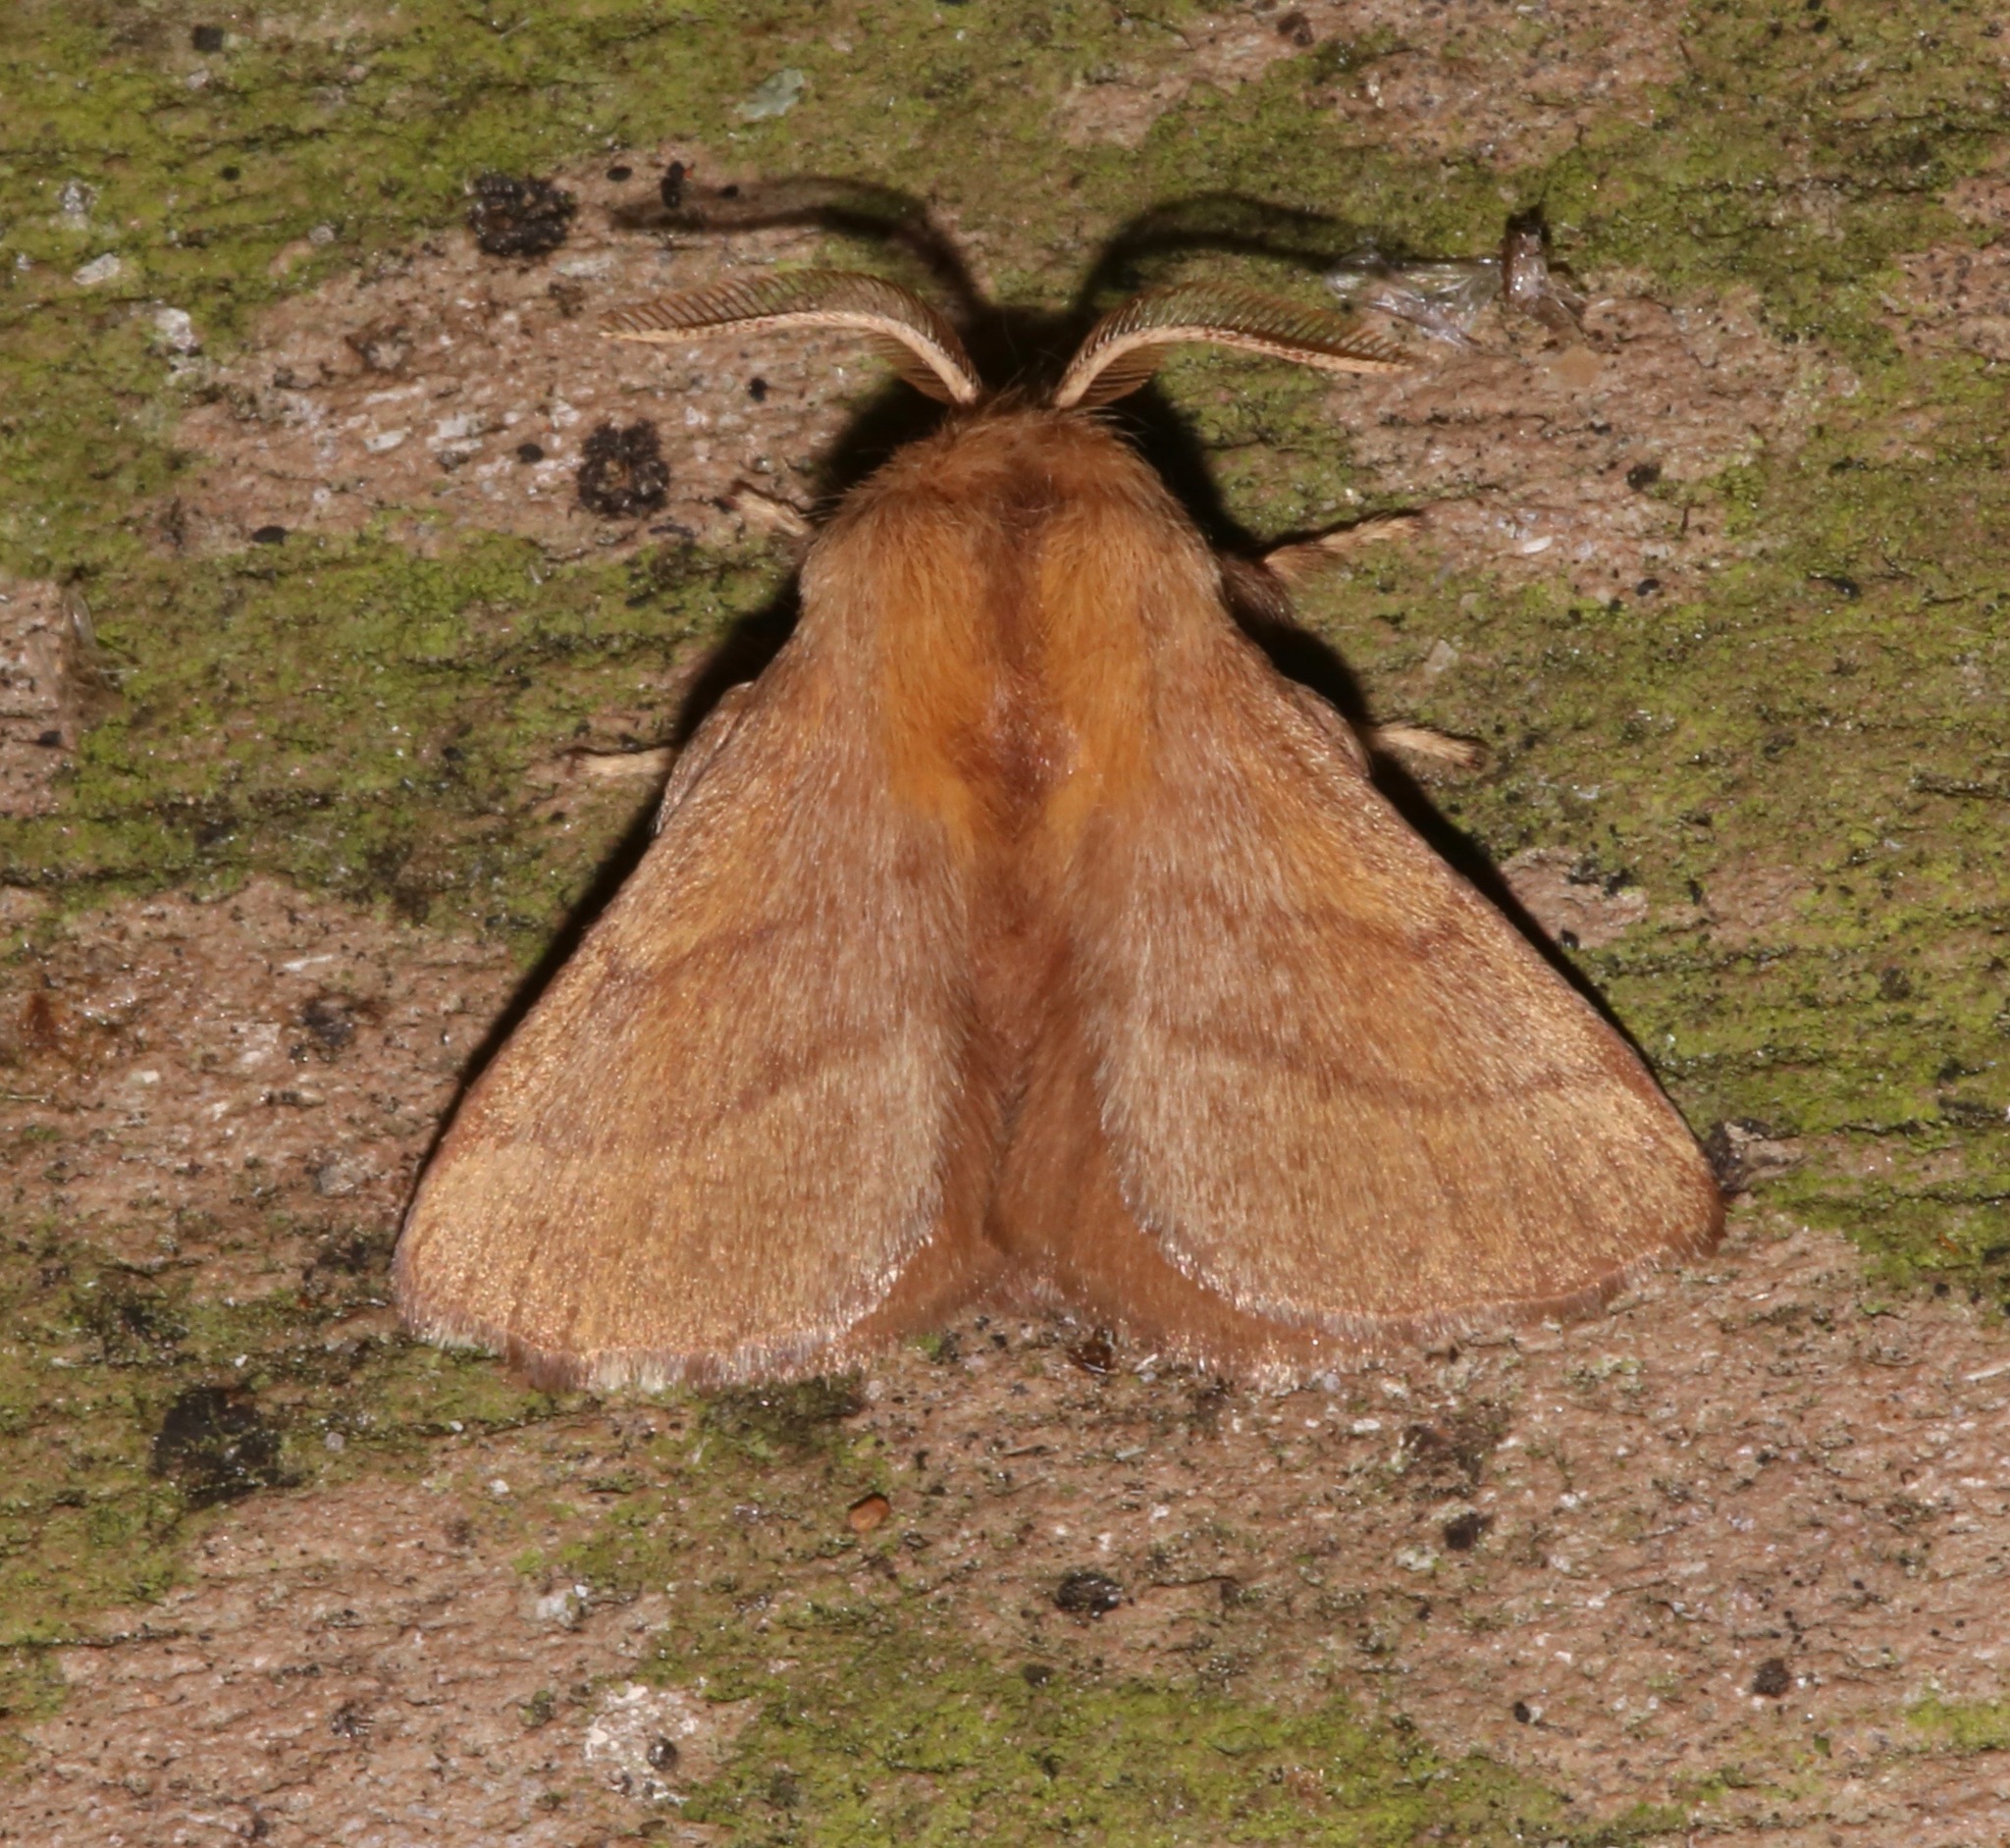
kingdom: Animalia
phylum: Arthropoda
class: Insecta
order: Lepidoptera
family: Lasiocampidae
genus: Malacosoma
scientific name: Malacosoma disstria
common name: Forest tent caterpillar
